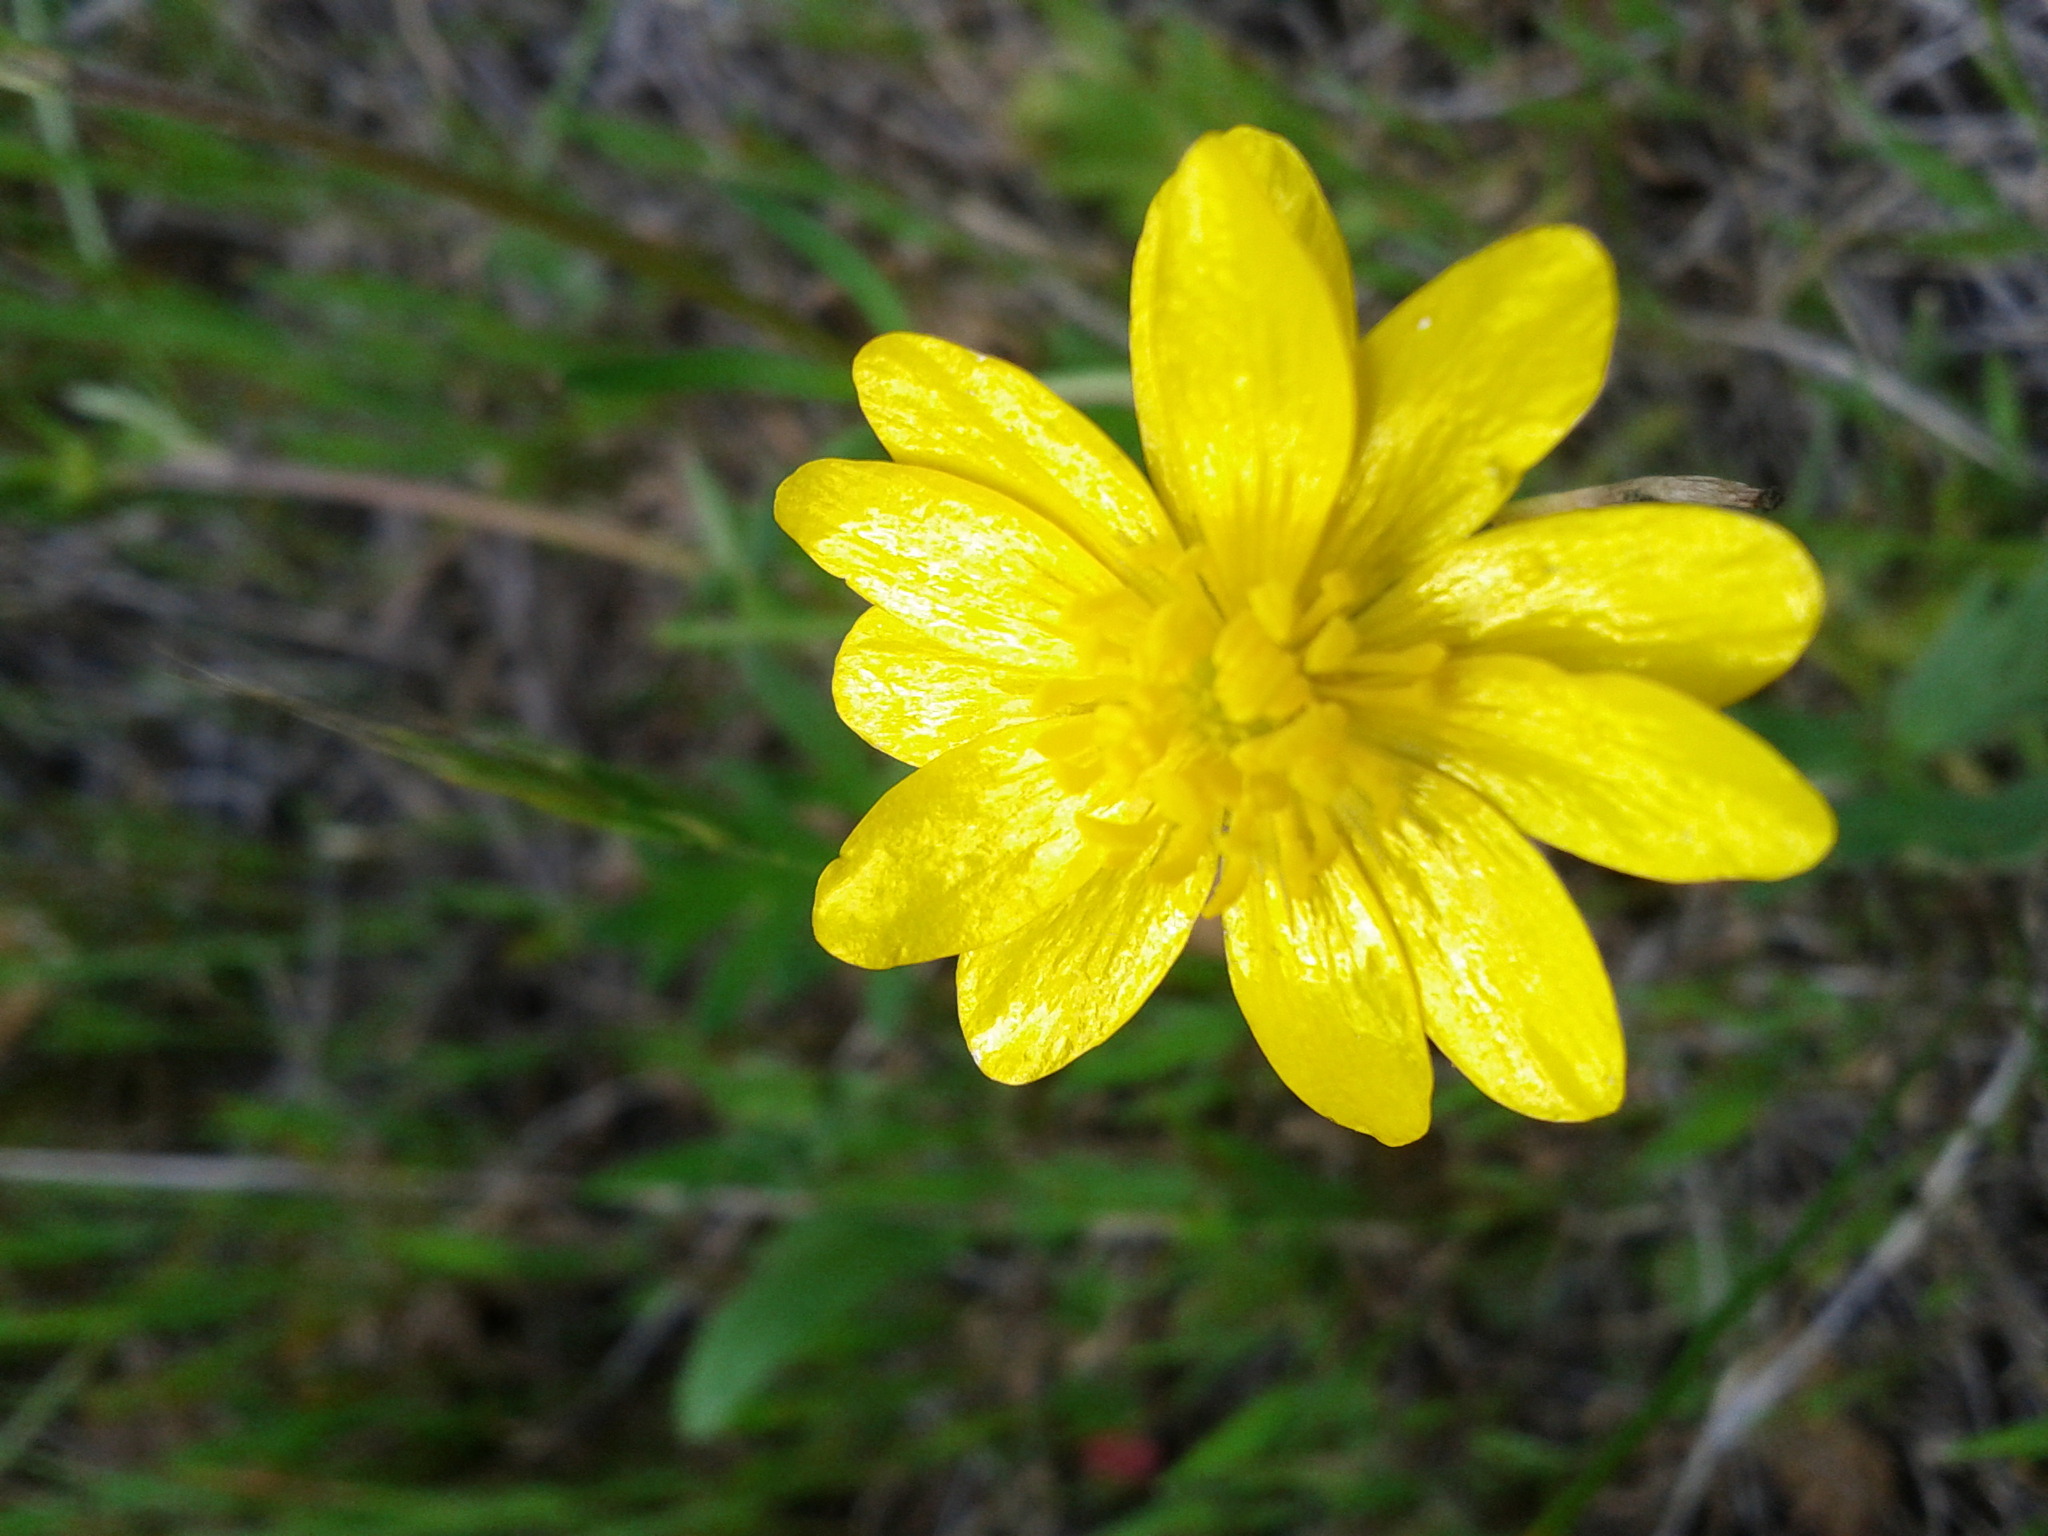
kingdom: Plantae
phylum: Tracheophyta
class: Magnoliopsida
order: Ranunculales
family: Ranunculaceae
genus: Ranunculus
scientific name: Ranunculus californicus
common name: California buttercup
